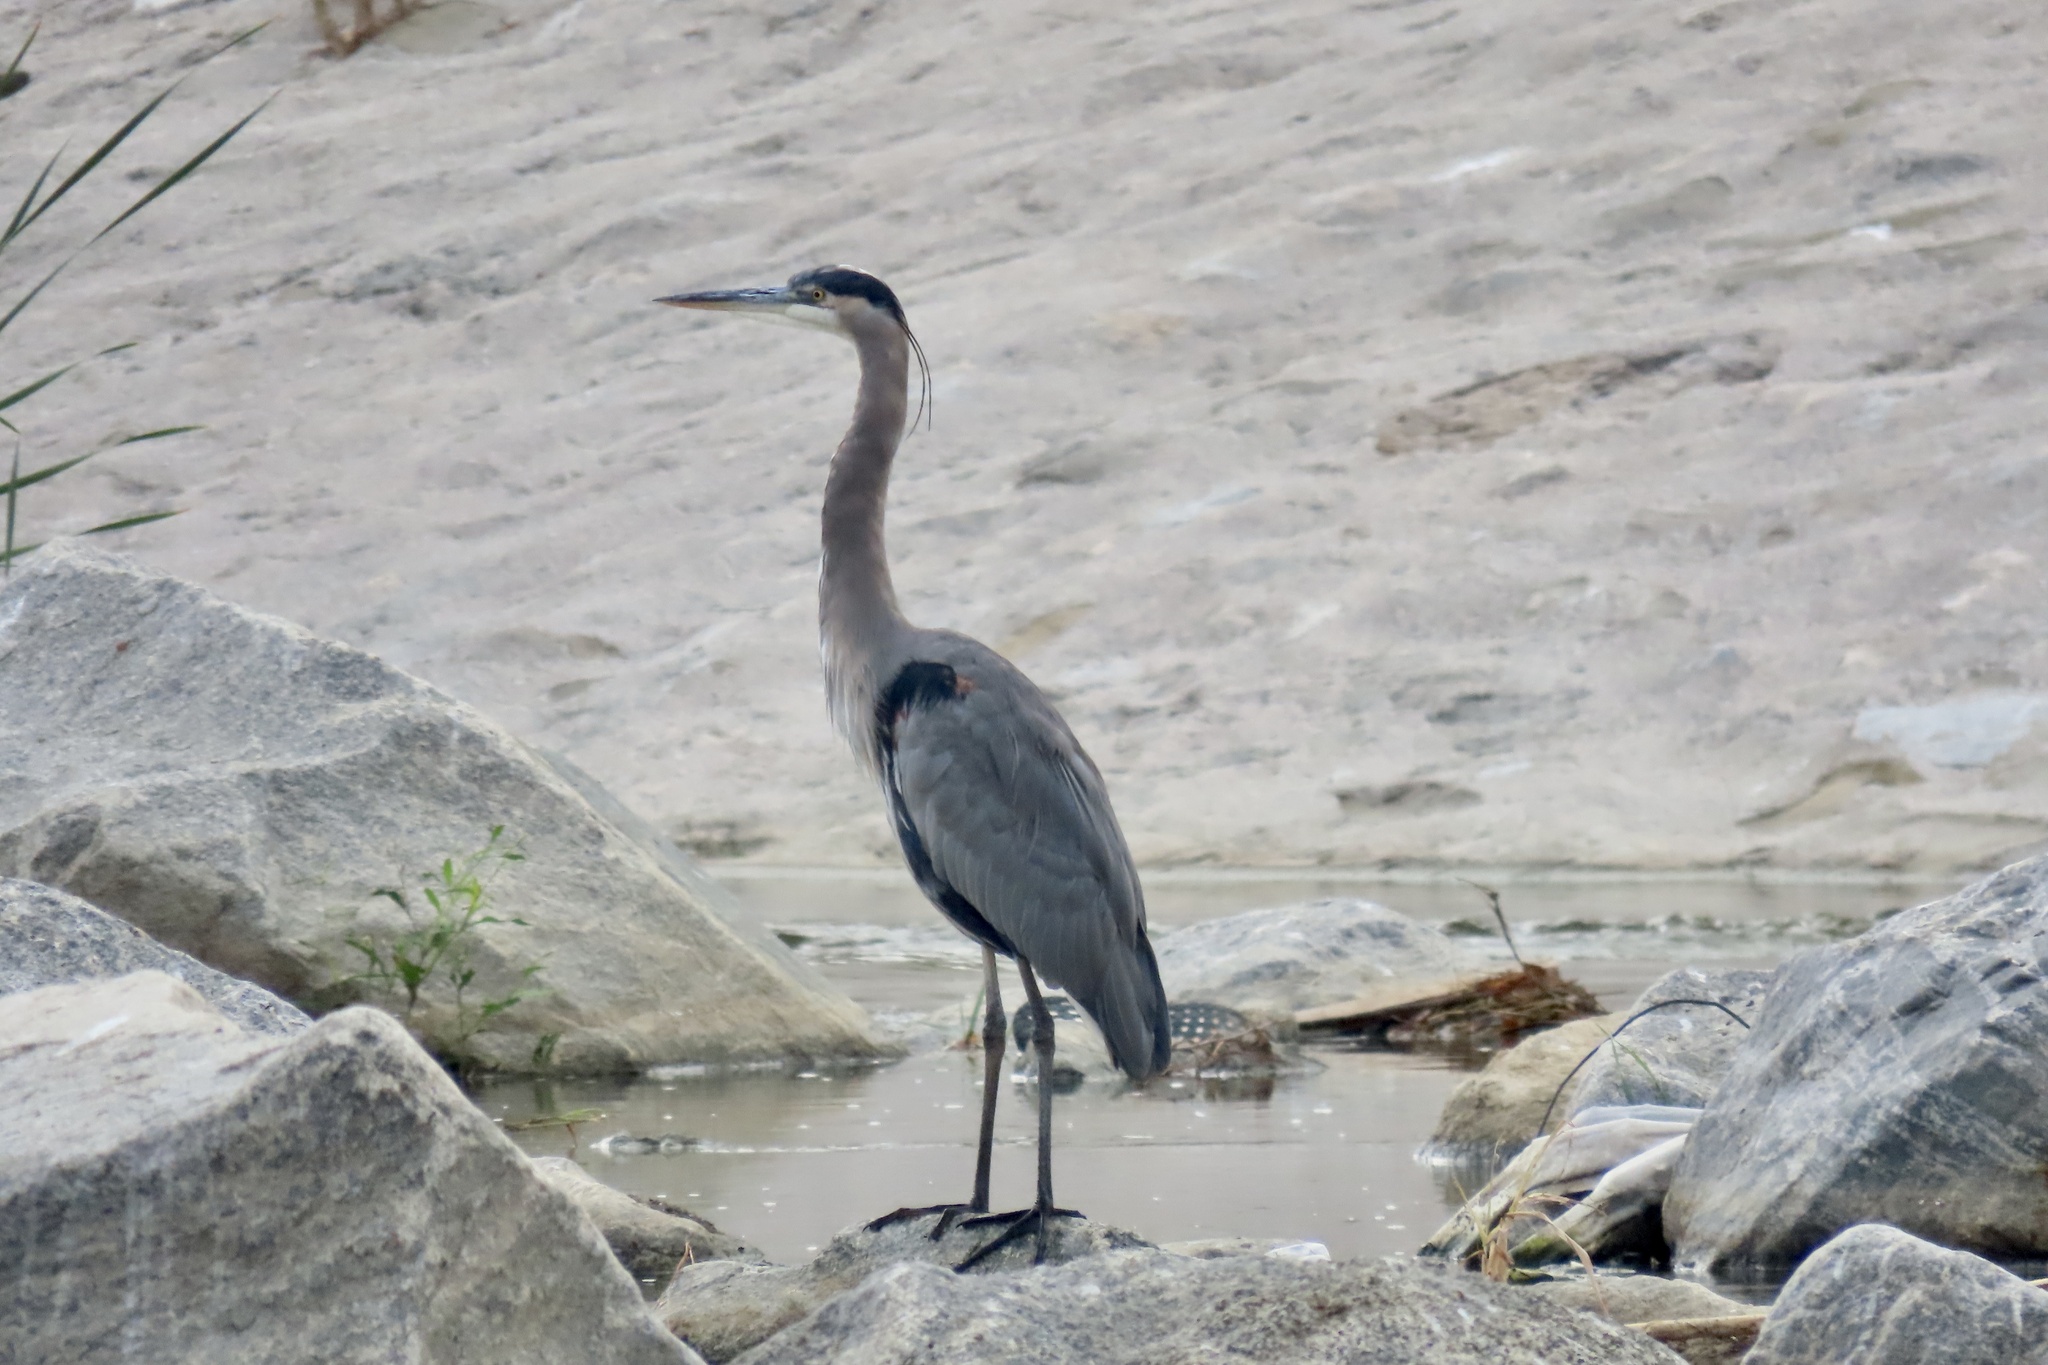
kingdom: Animalia
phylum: Chordata
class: Aves
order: Pelecaniformes
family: Ardeidae
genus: Ardea
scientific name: Ardea herodias
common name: Great blue heron
